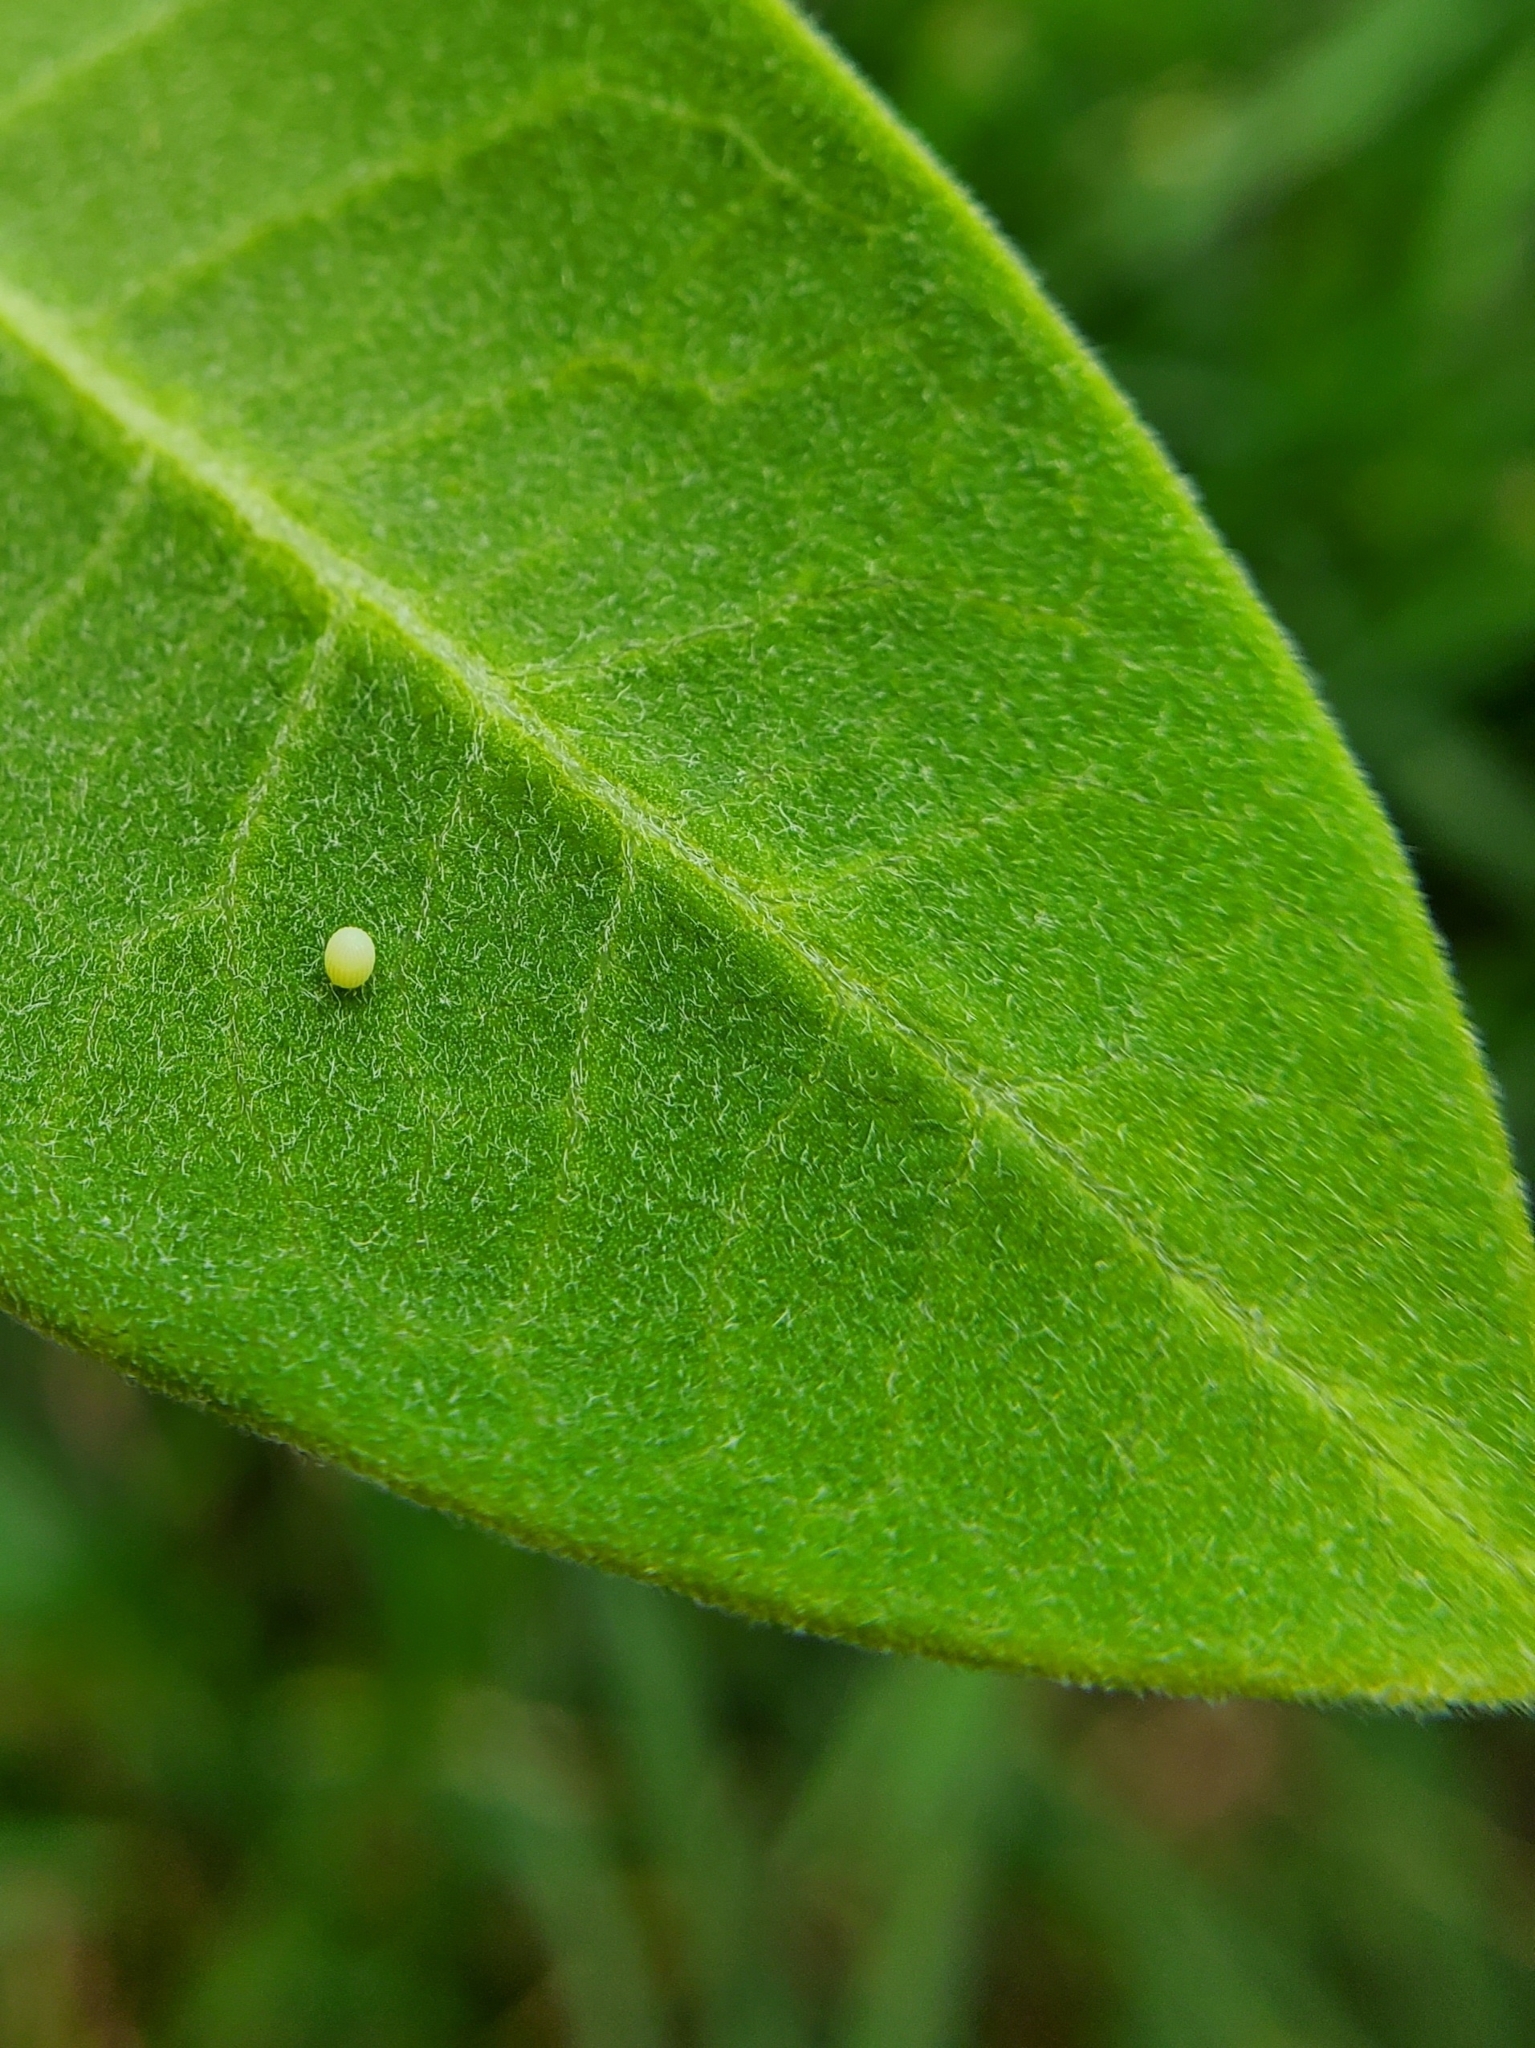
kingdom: Animalia
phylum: Arthropoda
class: Insecta
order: Lepidoptera
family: Nymphalidae
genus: Danaus
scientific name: Danaus plexippus
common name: Monarch
